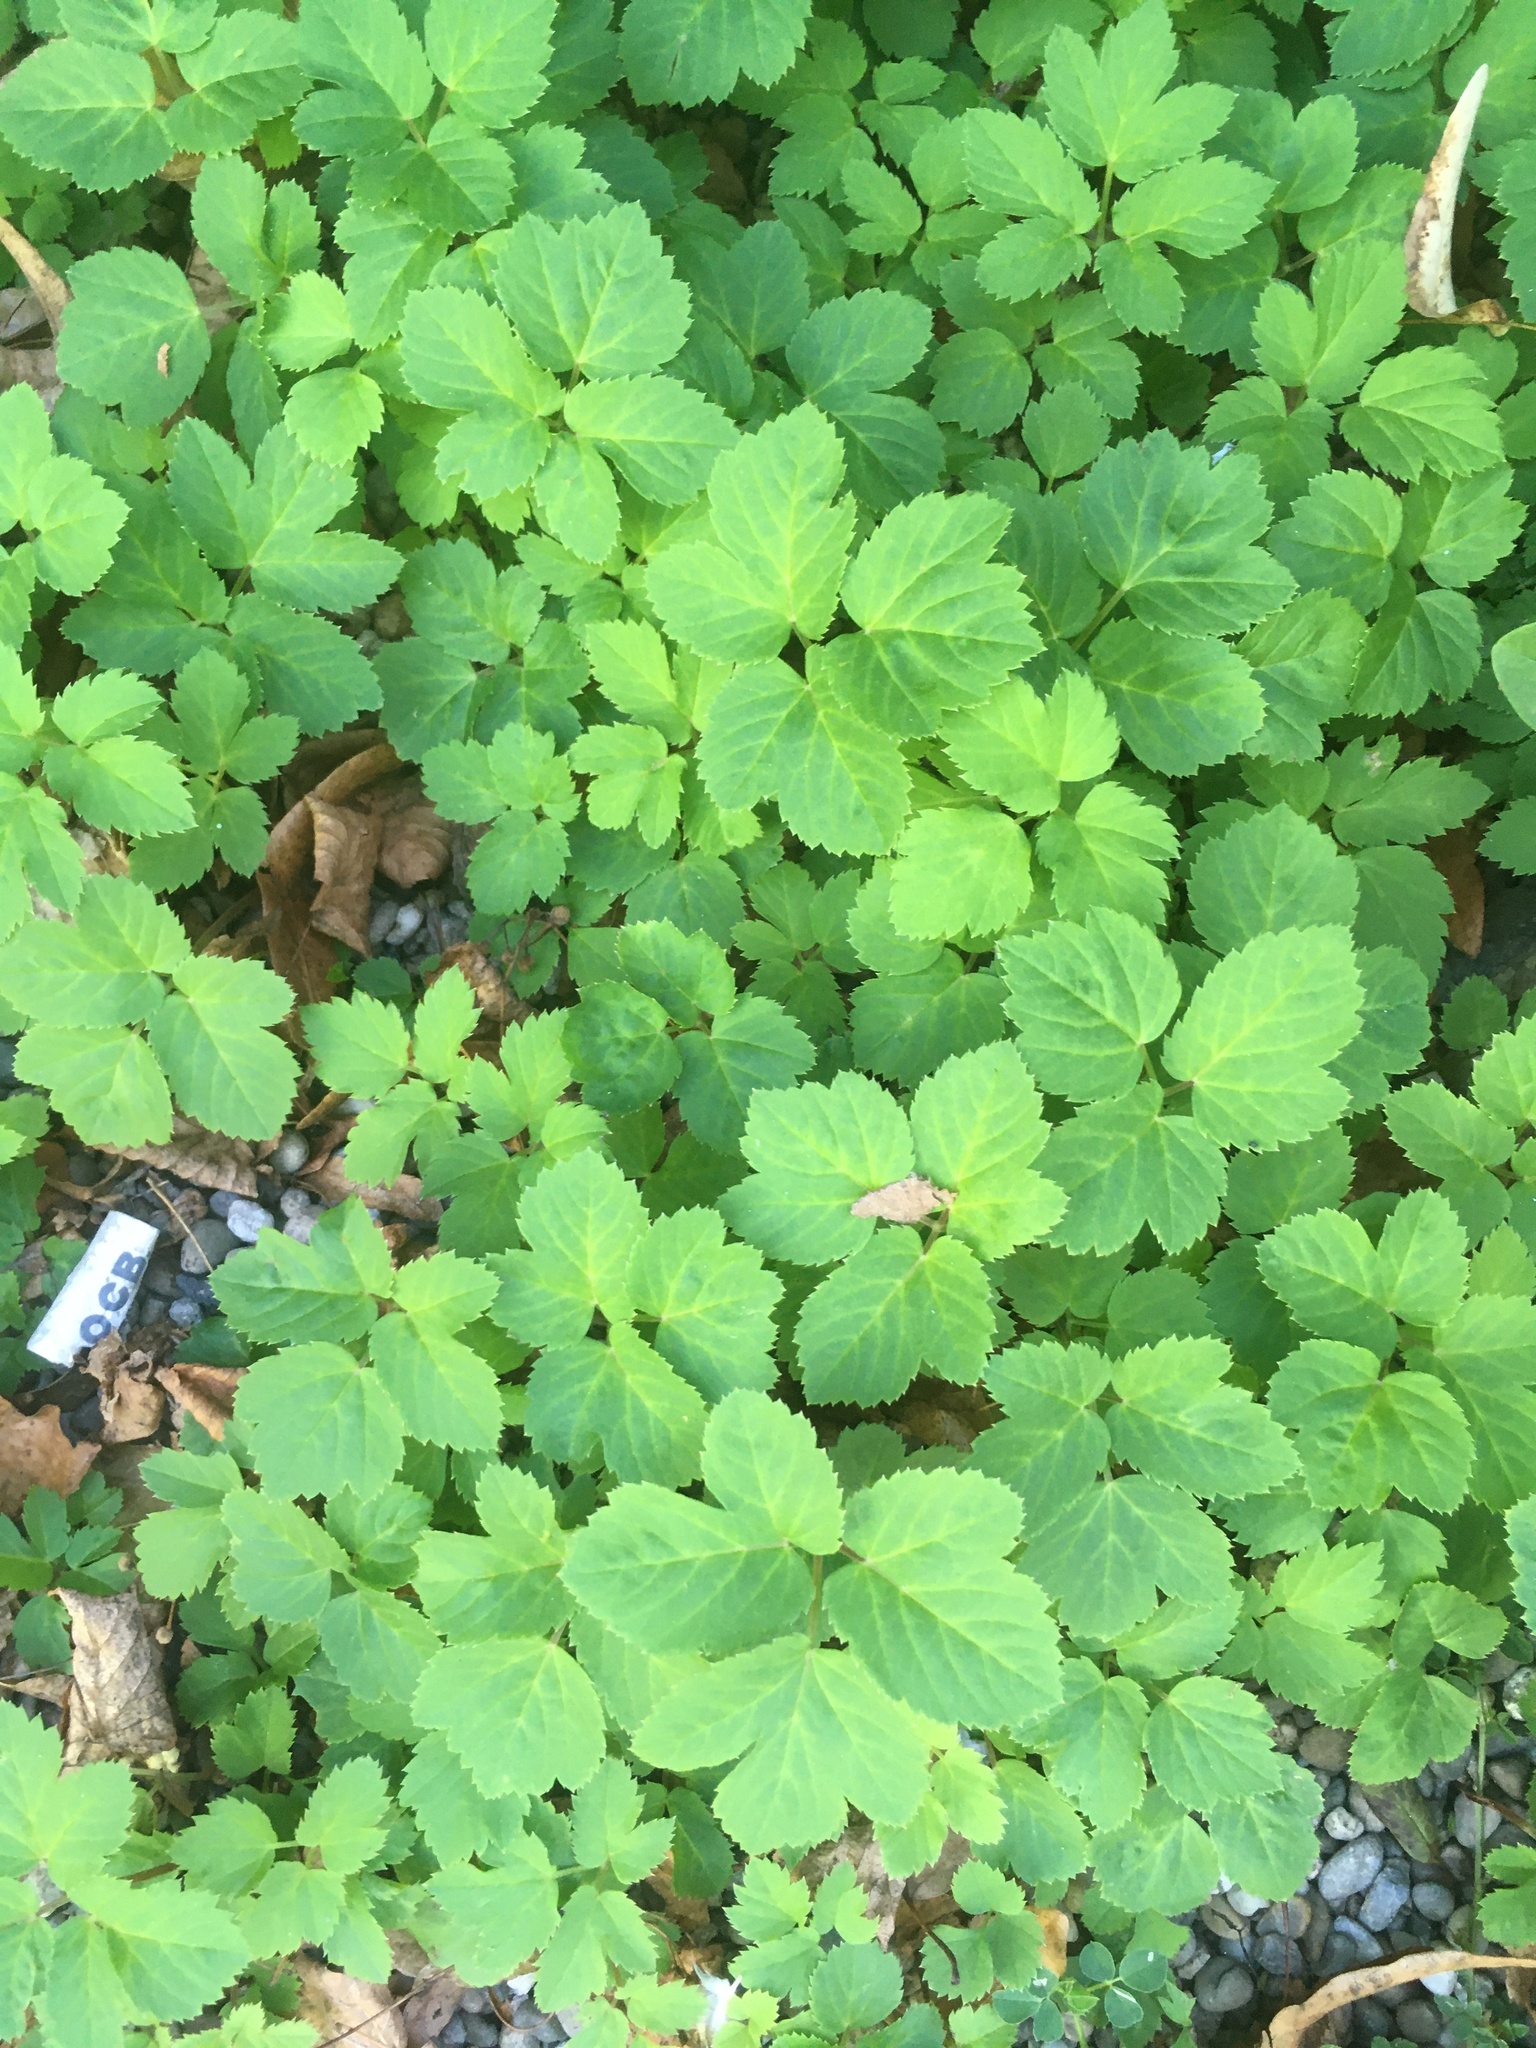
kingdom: Plantae
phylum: Tracheophyta
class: Magnoliopsida
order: Apiales
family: Apiaceae
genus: Aegopodium
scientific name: Aegopodium podagraria
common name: Ground-elder
